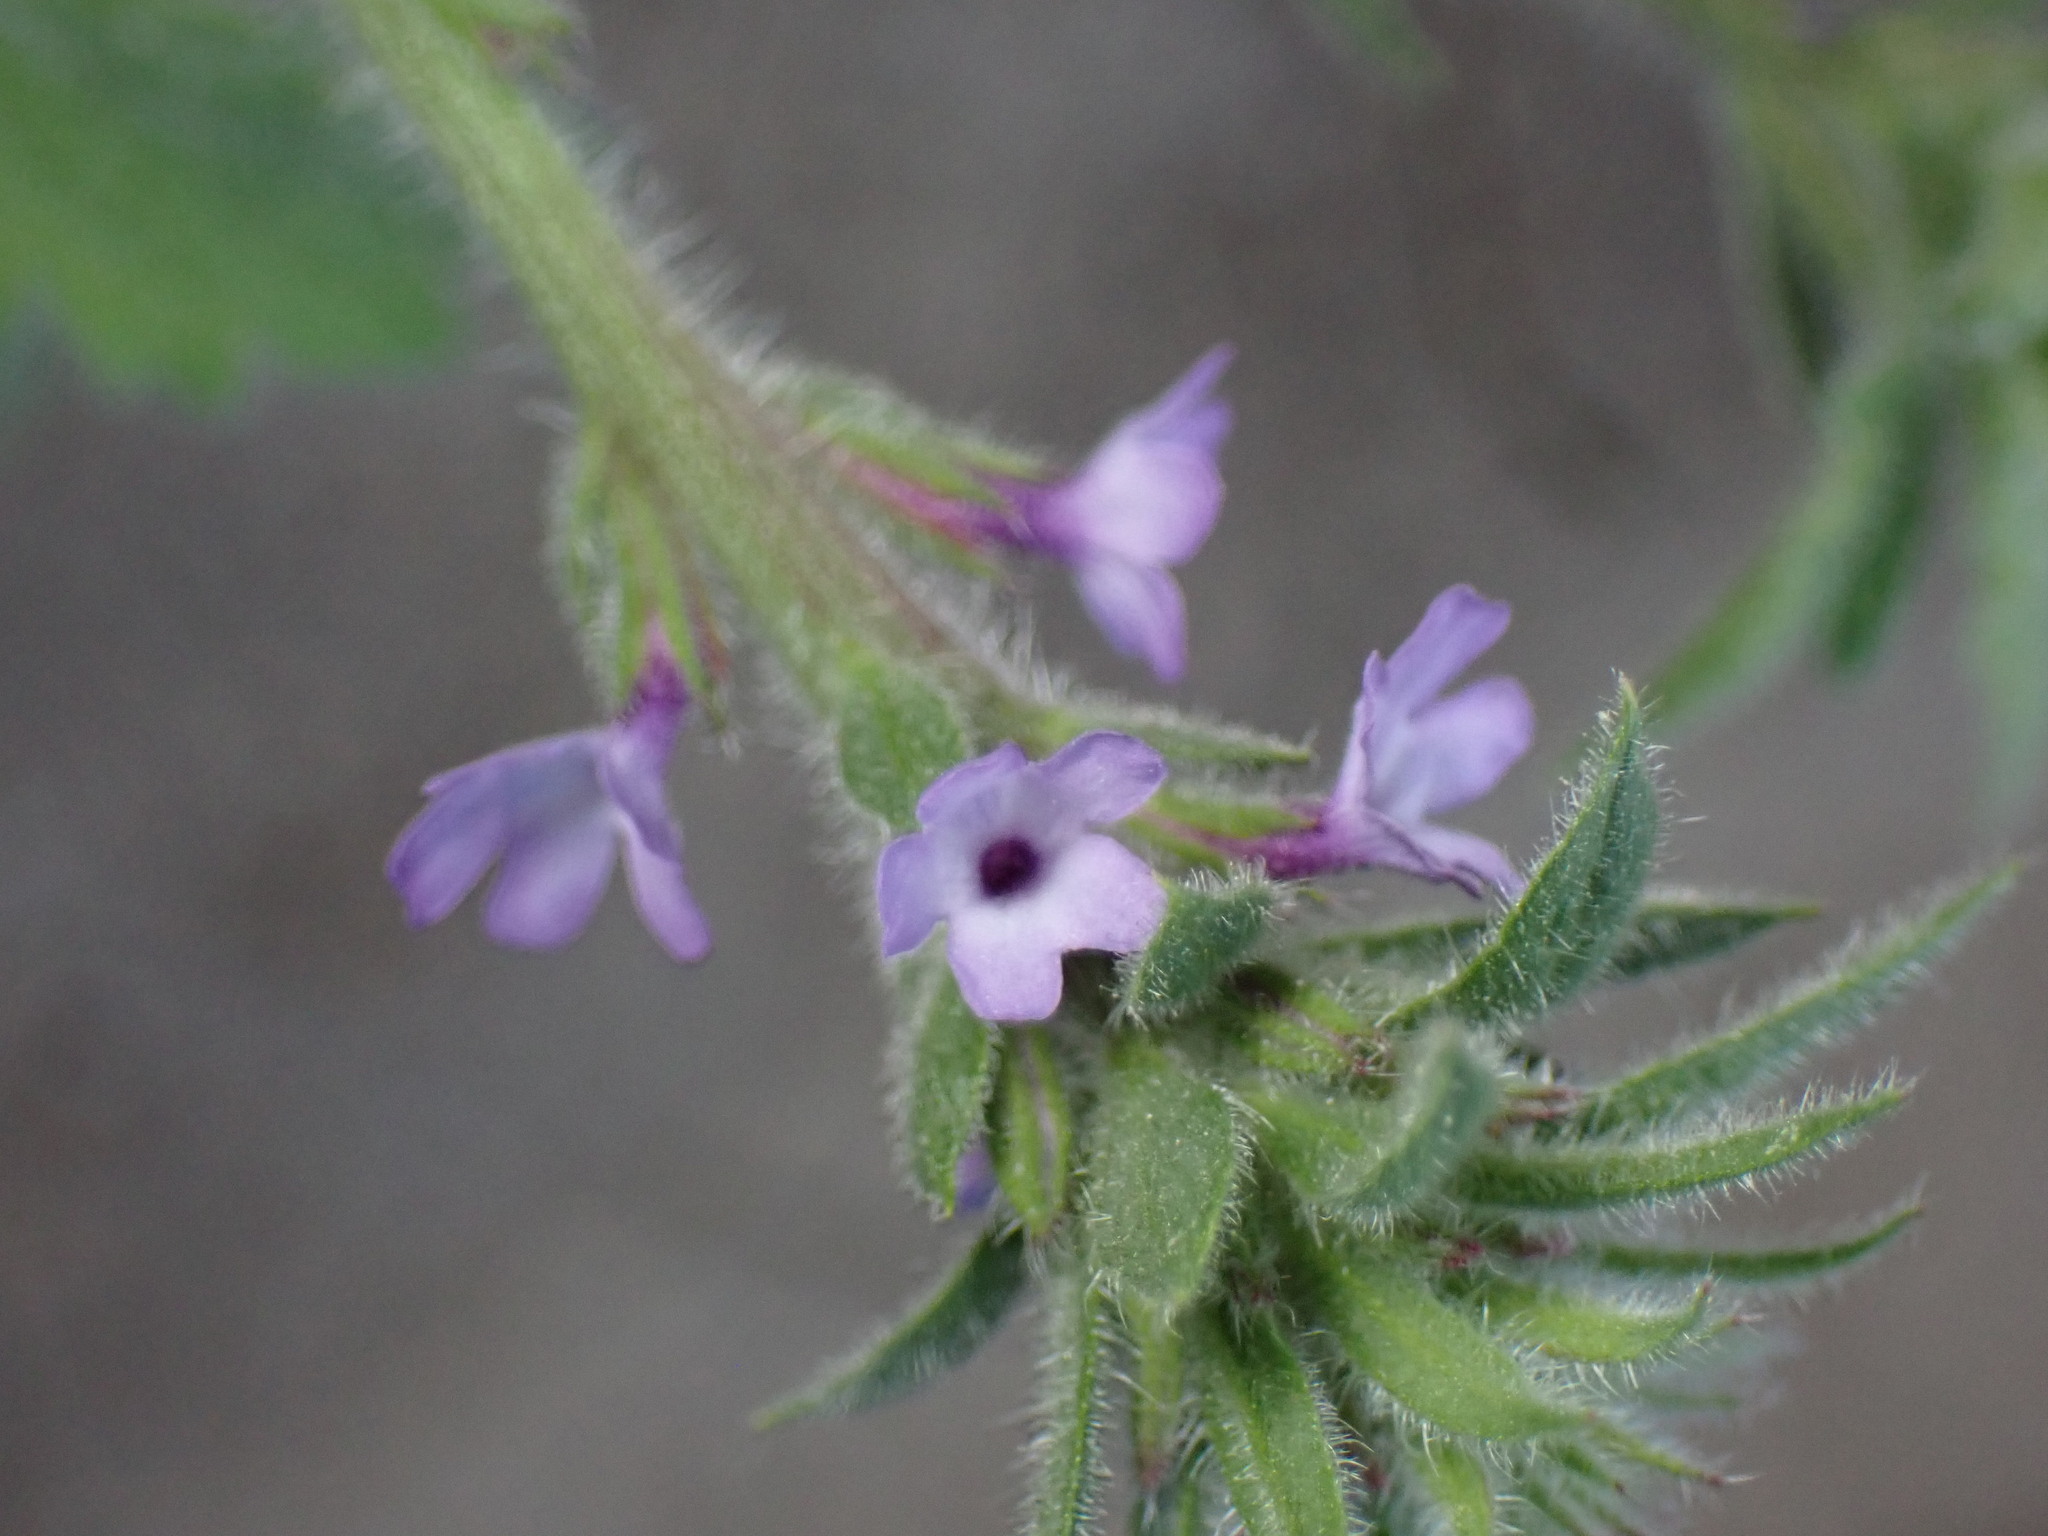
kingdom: Plantae
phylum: Tracheophyta
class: Magnoliopsida
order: Lamiales
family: Verbenaceae
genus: Verbena
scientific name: Verbena lasiostachys
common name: Vervain
